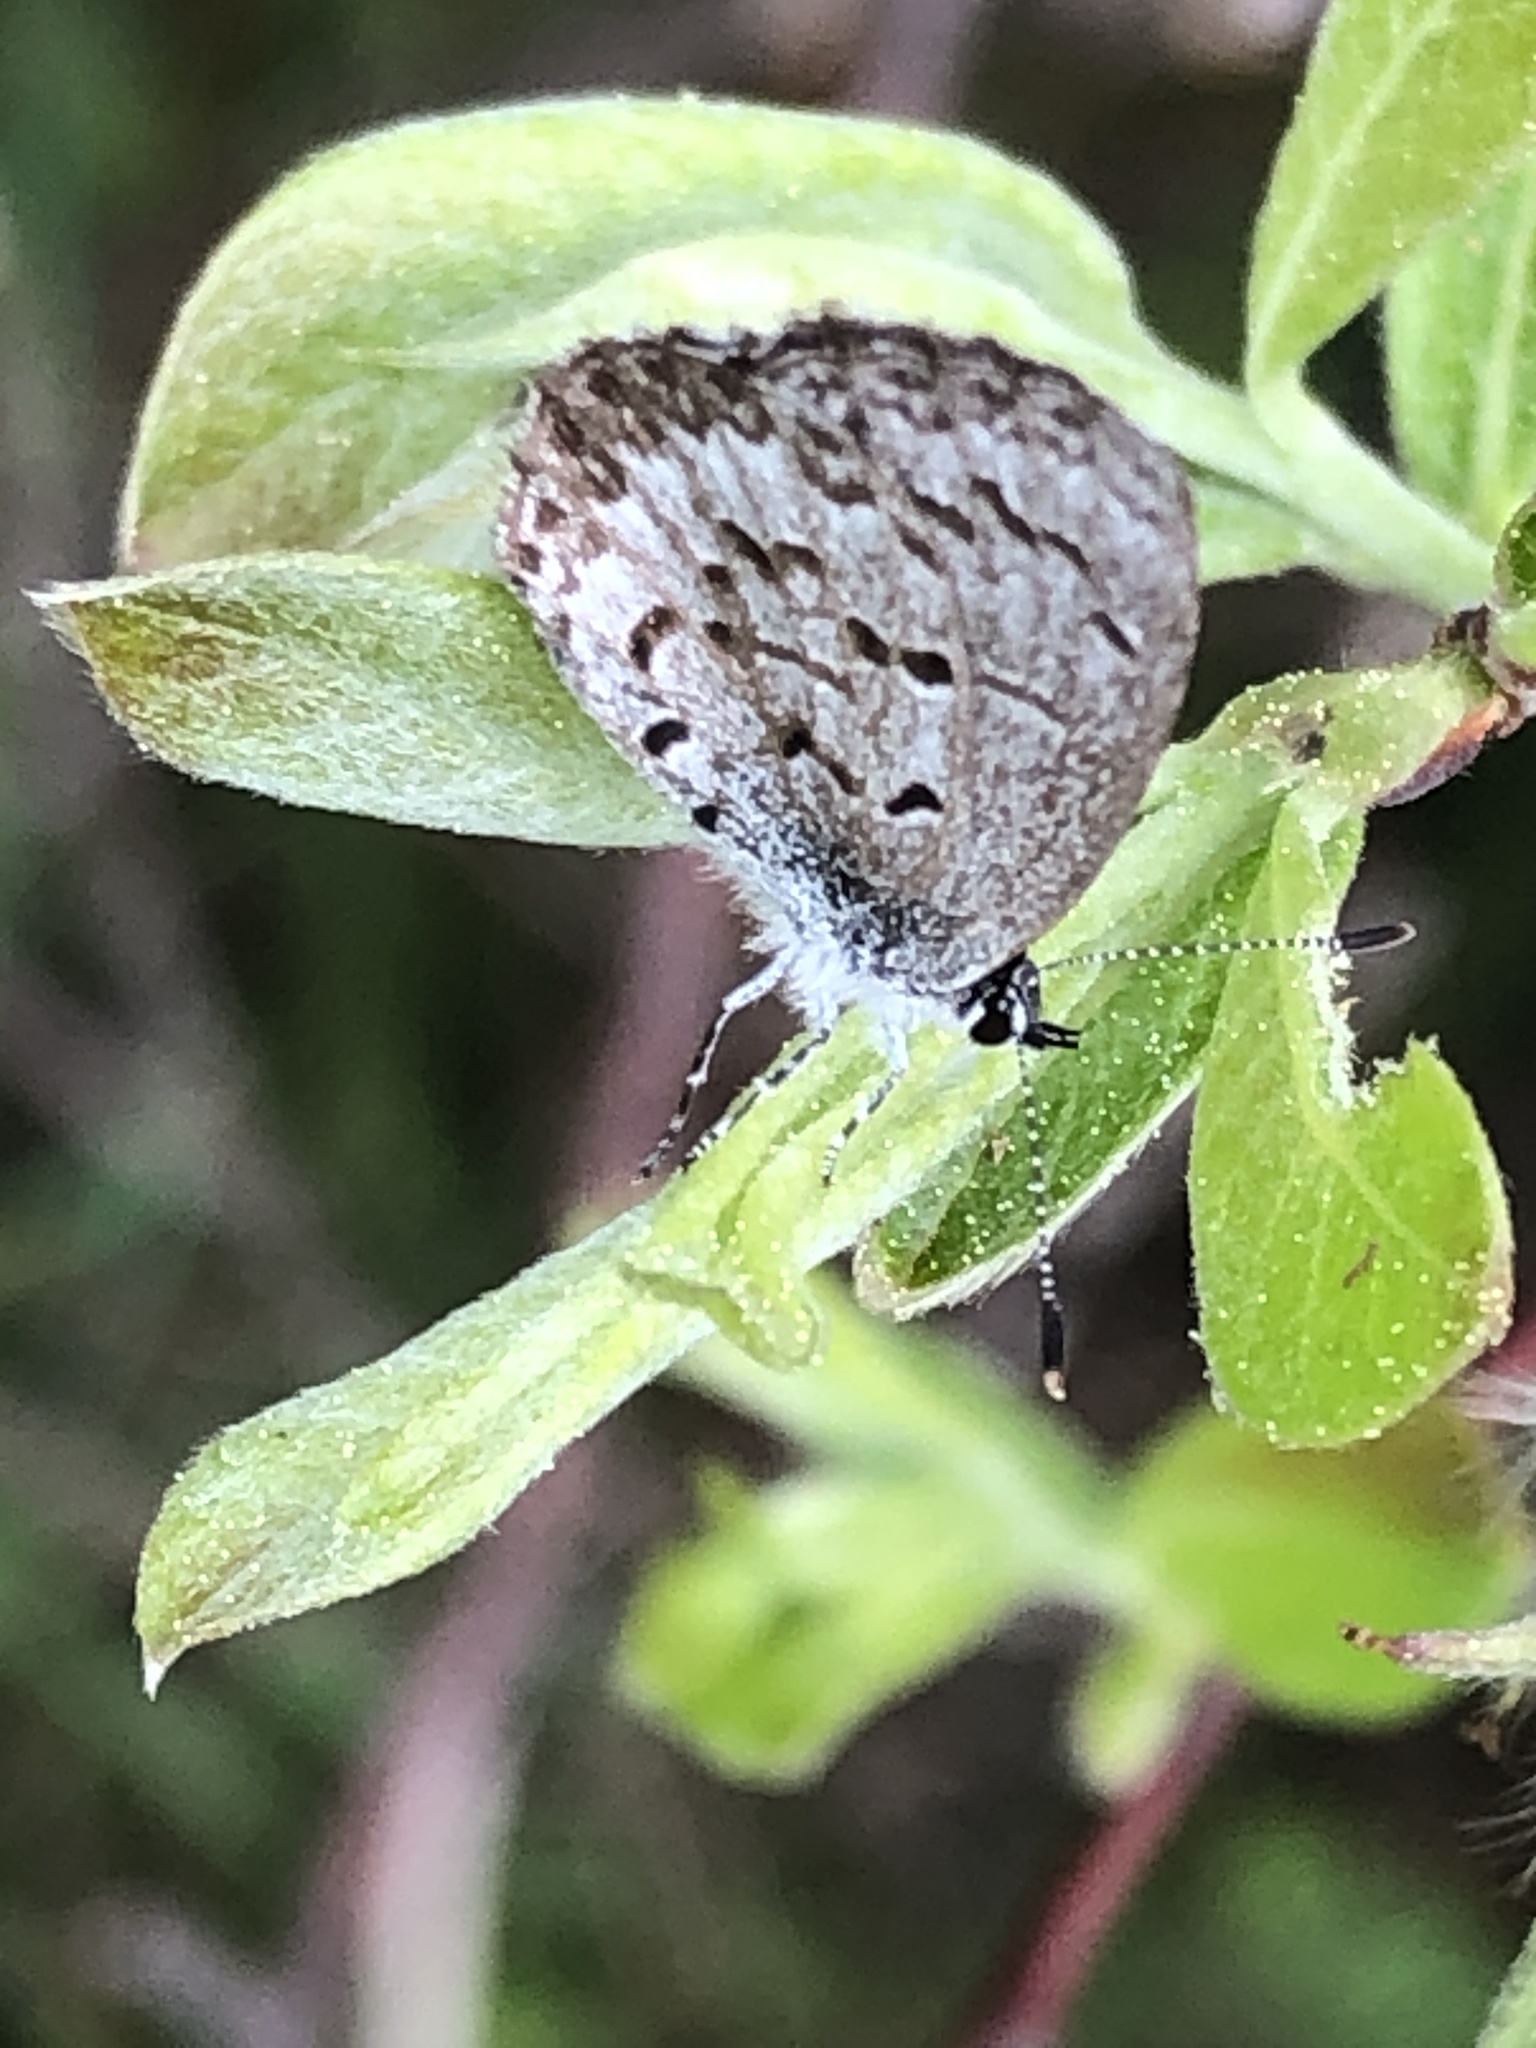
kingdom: Animalia
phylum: Arthropoda
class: Insecta
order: Lepidoptera
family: Lycaenidae
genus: Celastrina
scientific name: Celastrina lucia
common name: Lucia azure
